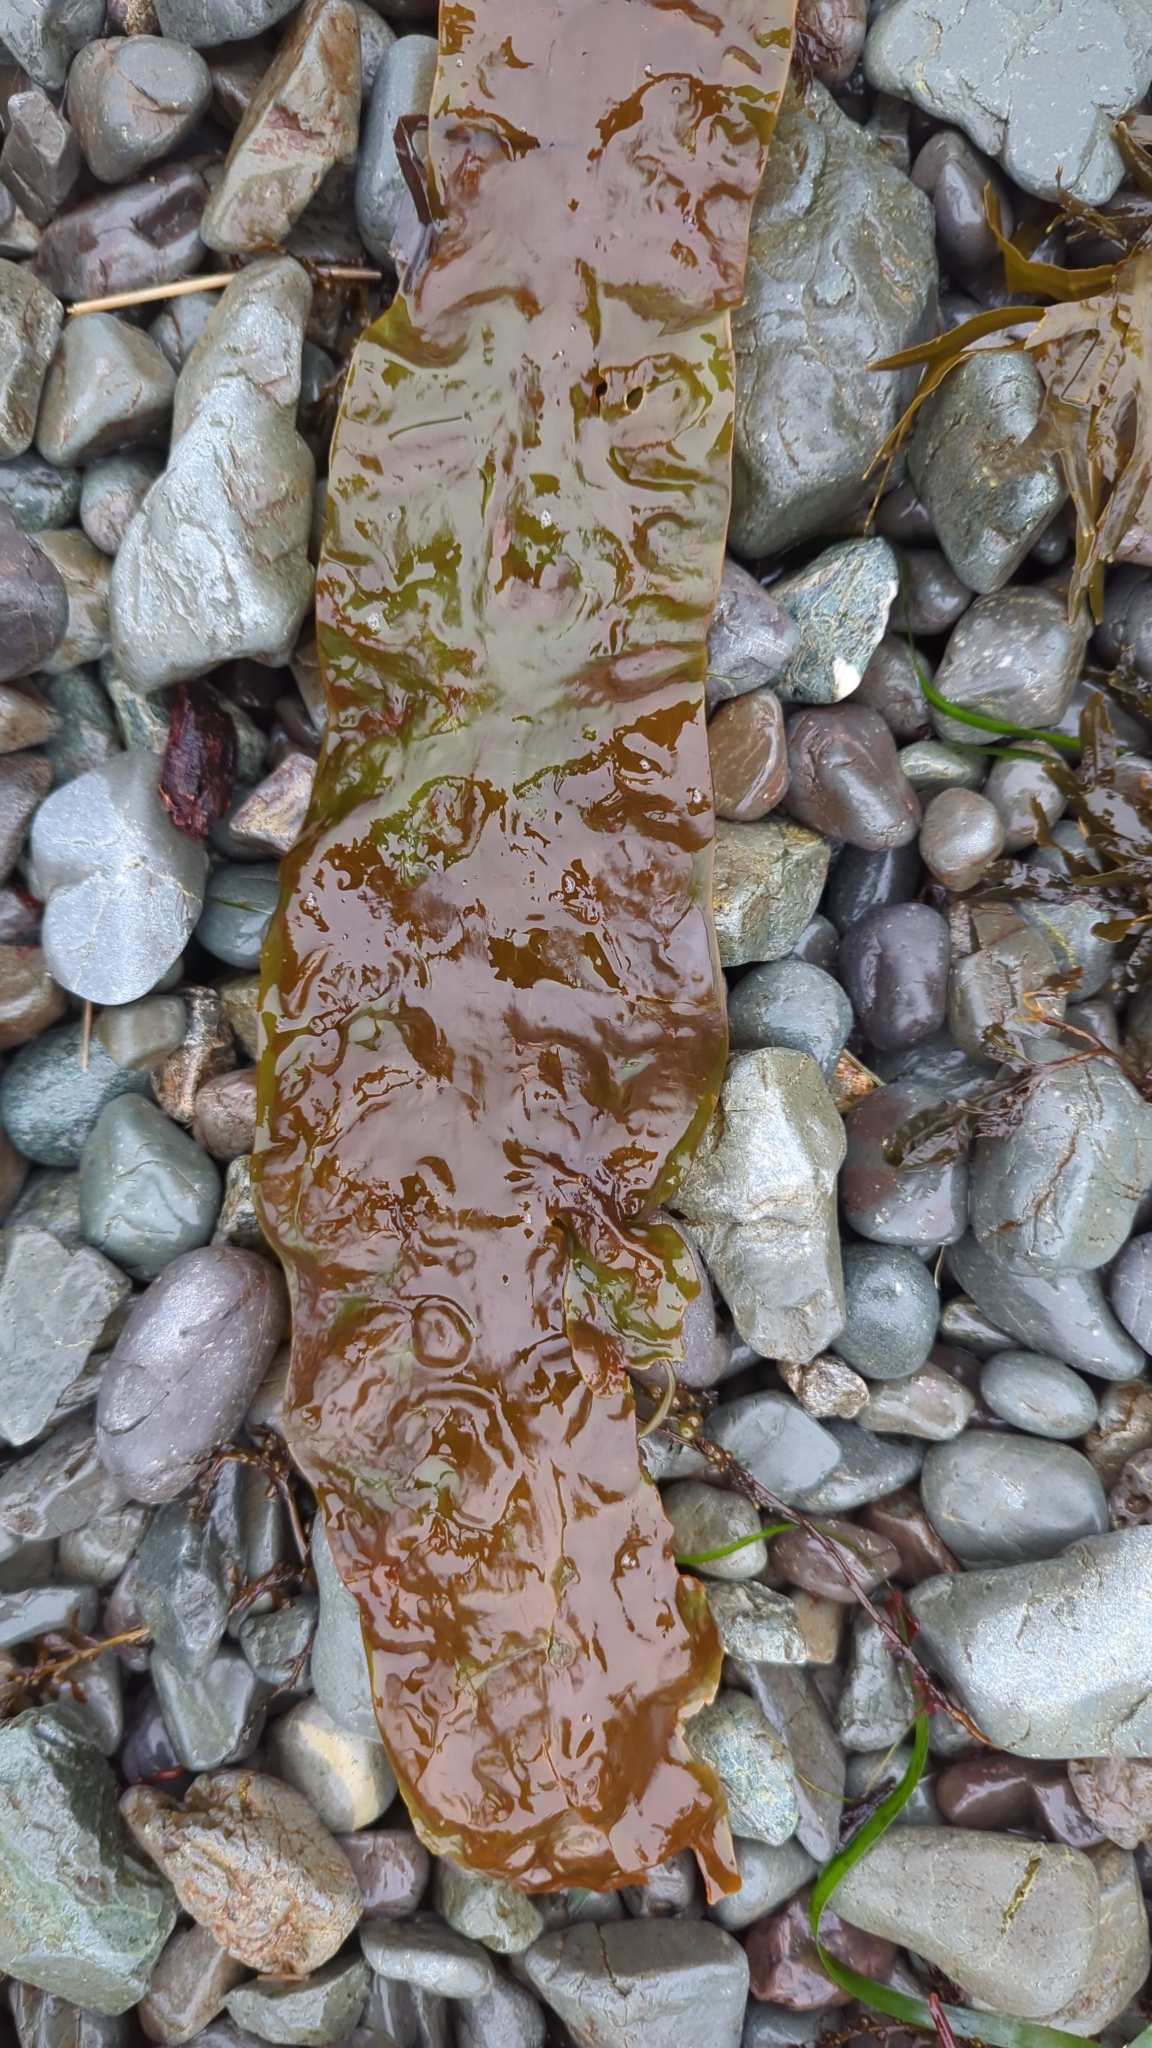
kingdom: Chromista
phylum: Ochrophyta
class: Phaeophyceae
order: Laminariales
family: Laminariaceae
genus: Saccharina
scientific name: Saccharina latissima
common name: Poor man's weather glass
